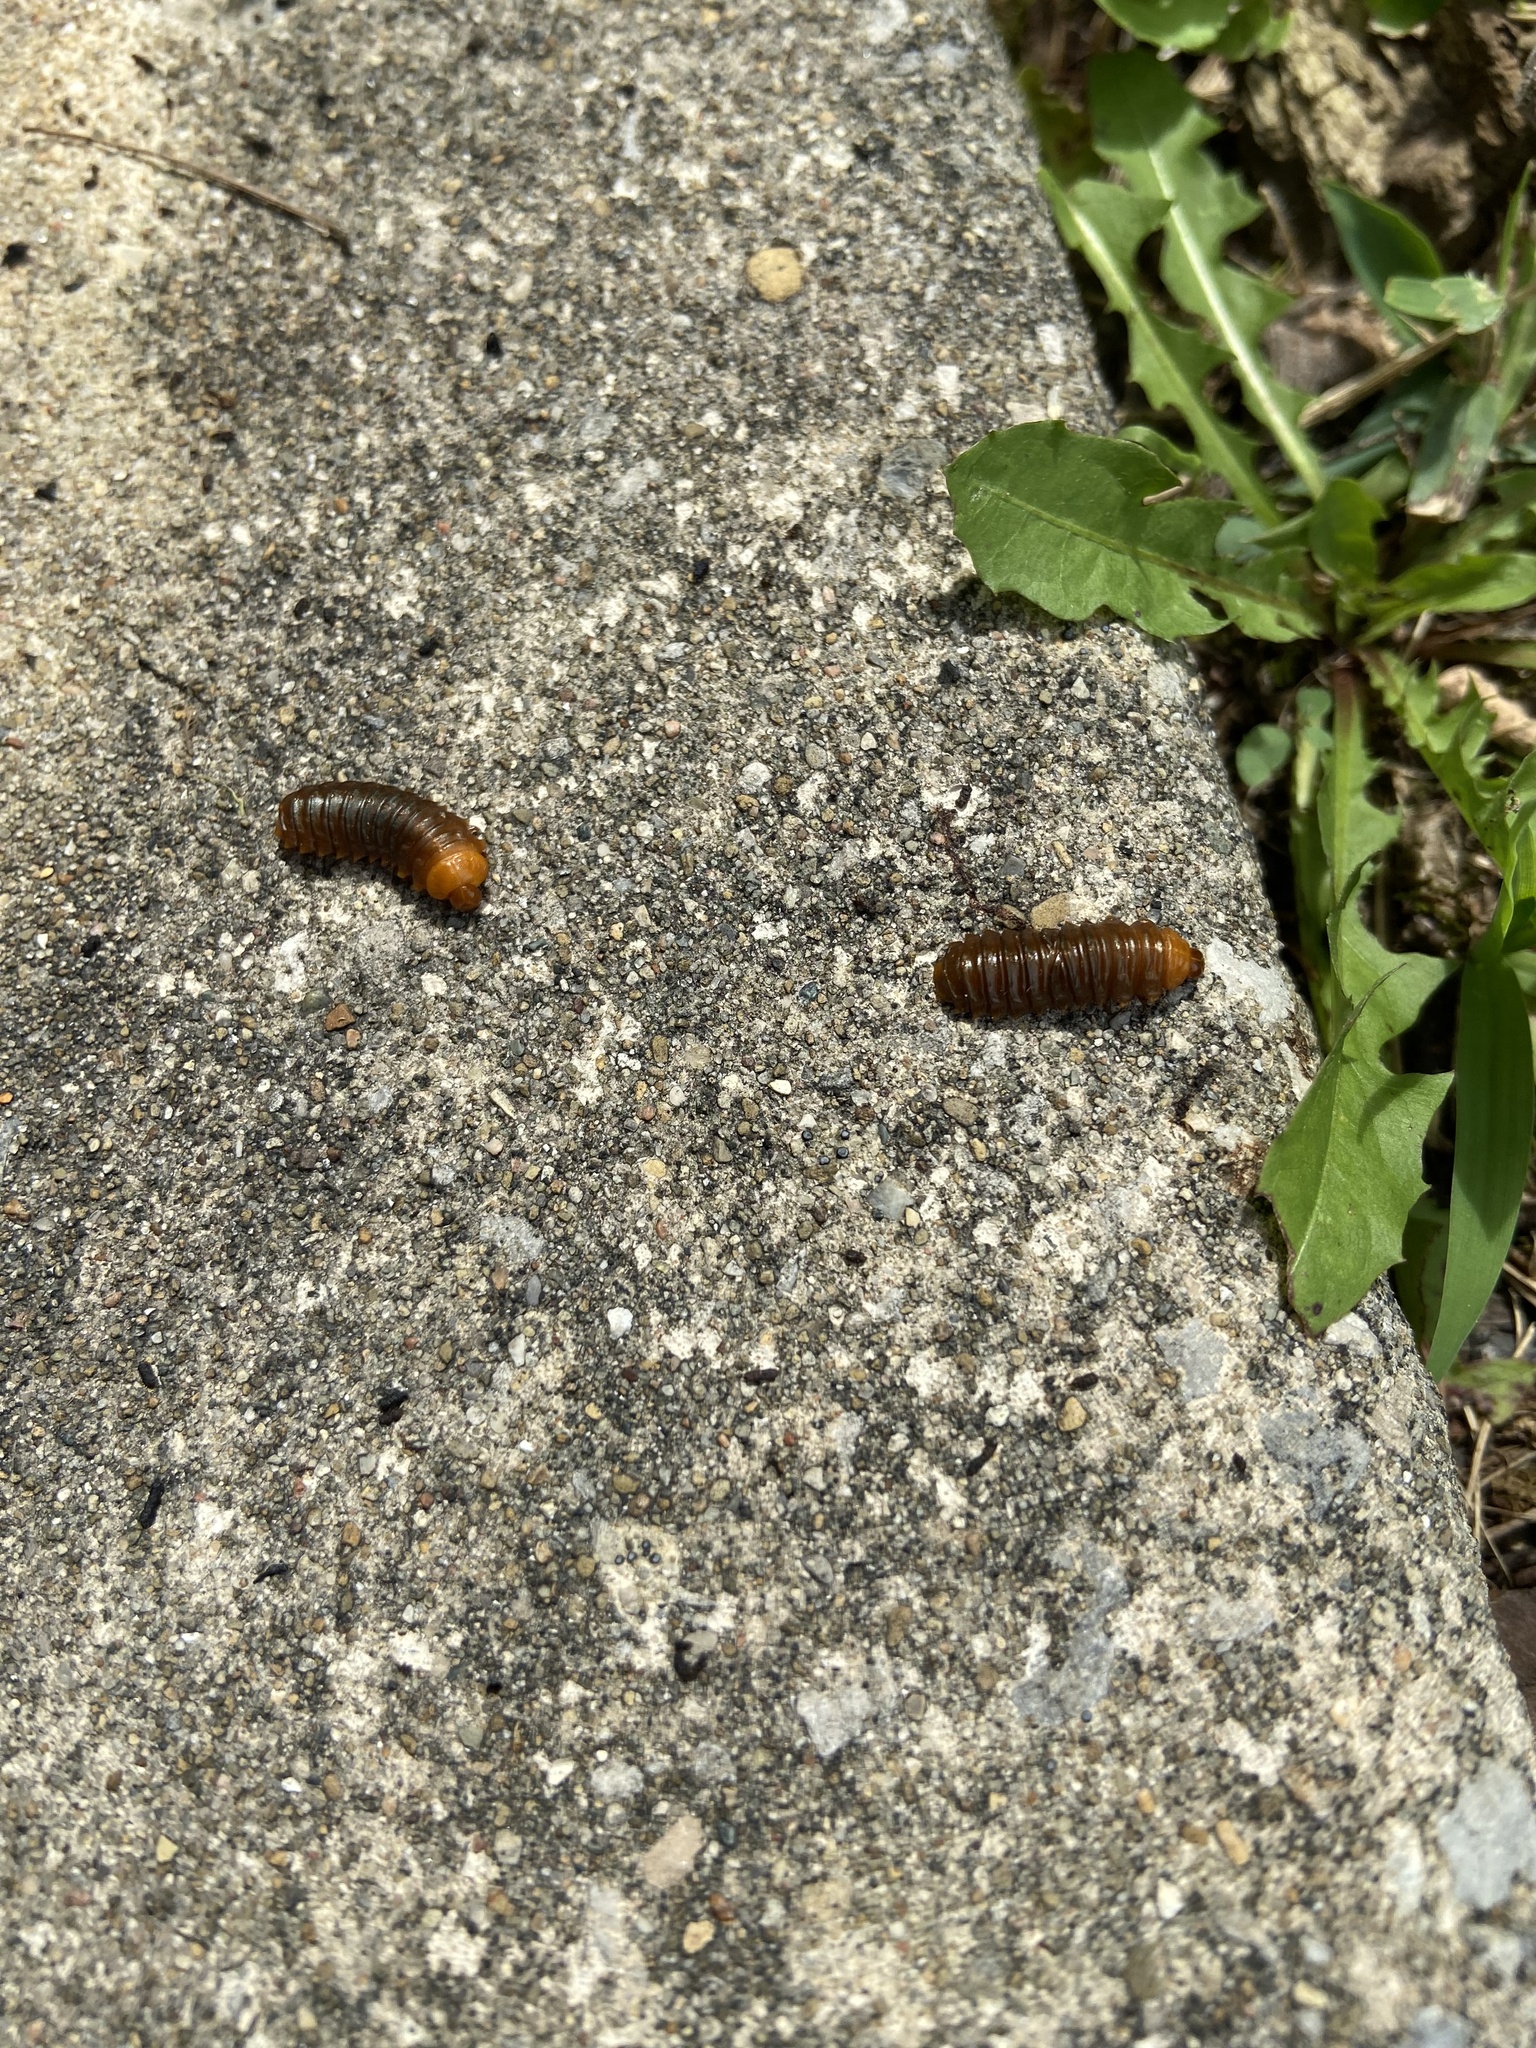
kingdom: Animalia
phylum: Arthropoda
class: Insecta
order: Coleoptera
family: Chrysomelidae
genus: Monocesta
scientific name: Monocesta coryli
